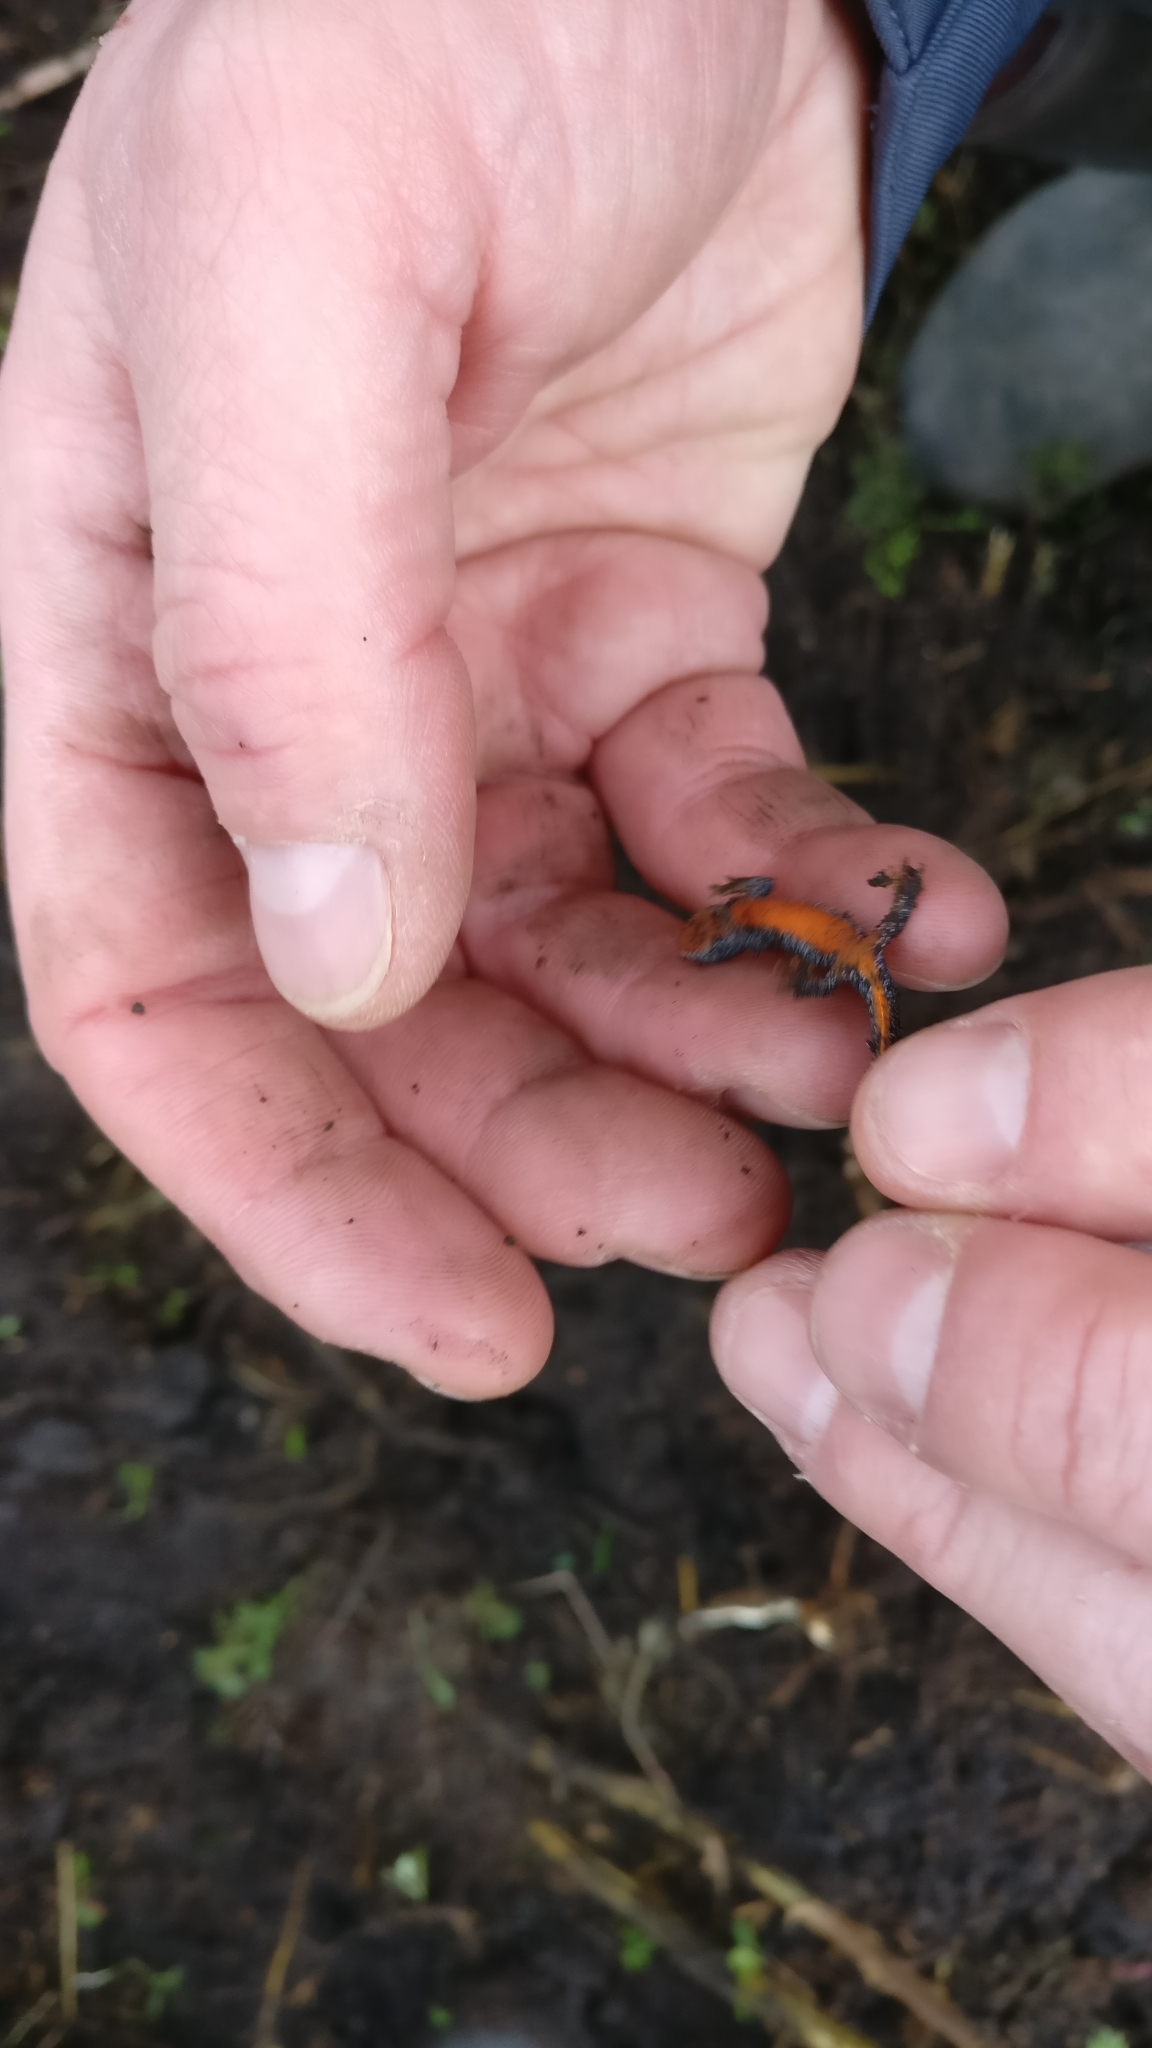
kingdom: Animalia
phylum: Chordata
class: Amphibia
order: Caudata
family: Salamandridae
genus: Ichthyosaura
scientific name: Ichthyosaura alpestris
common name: Alpine newt
